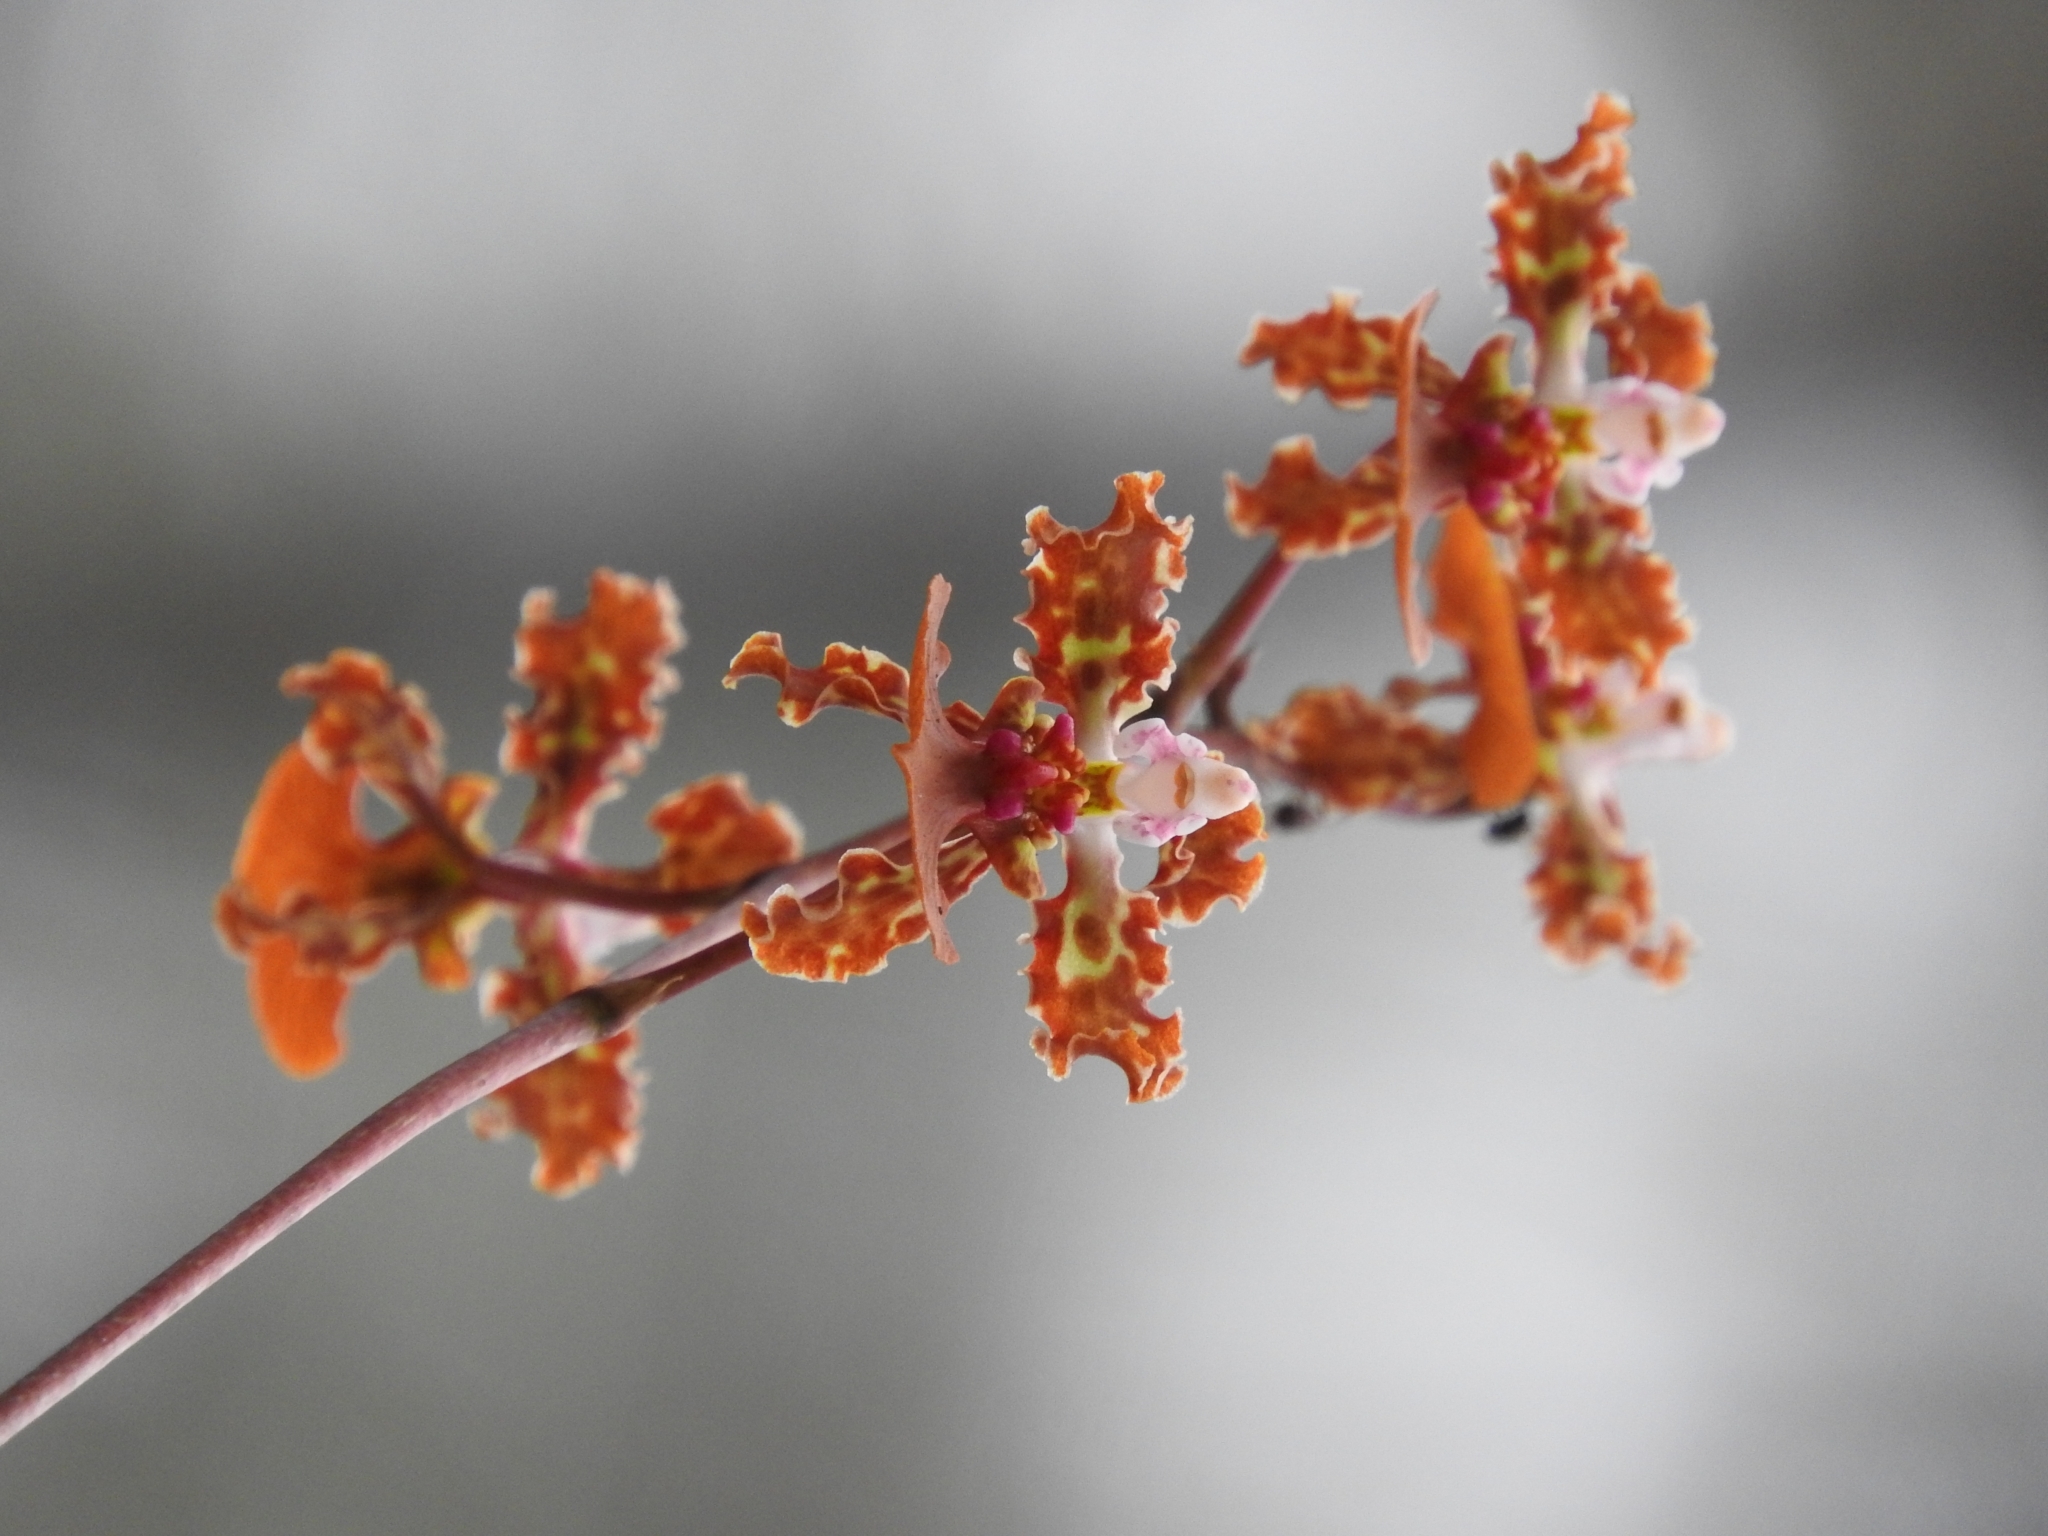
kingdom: Plantae
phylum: Tracheophyta
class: Liliopsida
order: Asparagales
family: Orchidaceae
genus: Trichocentrum
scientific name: Trichocentrum luridum
